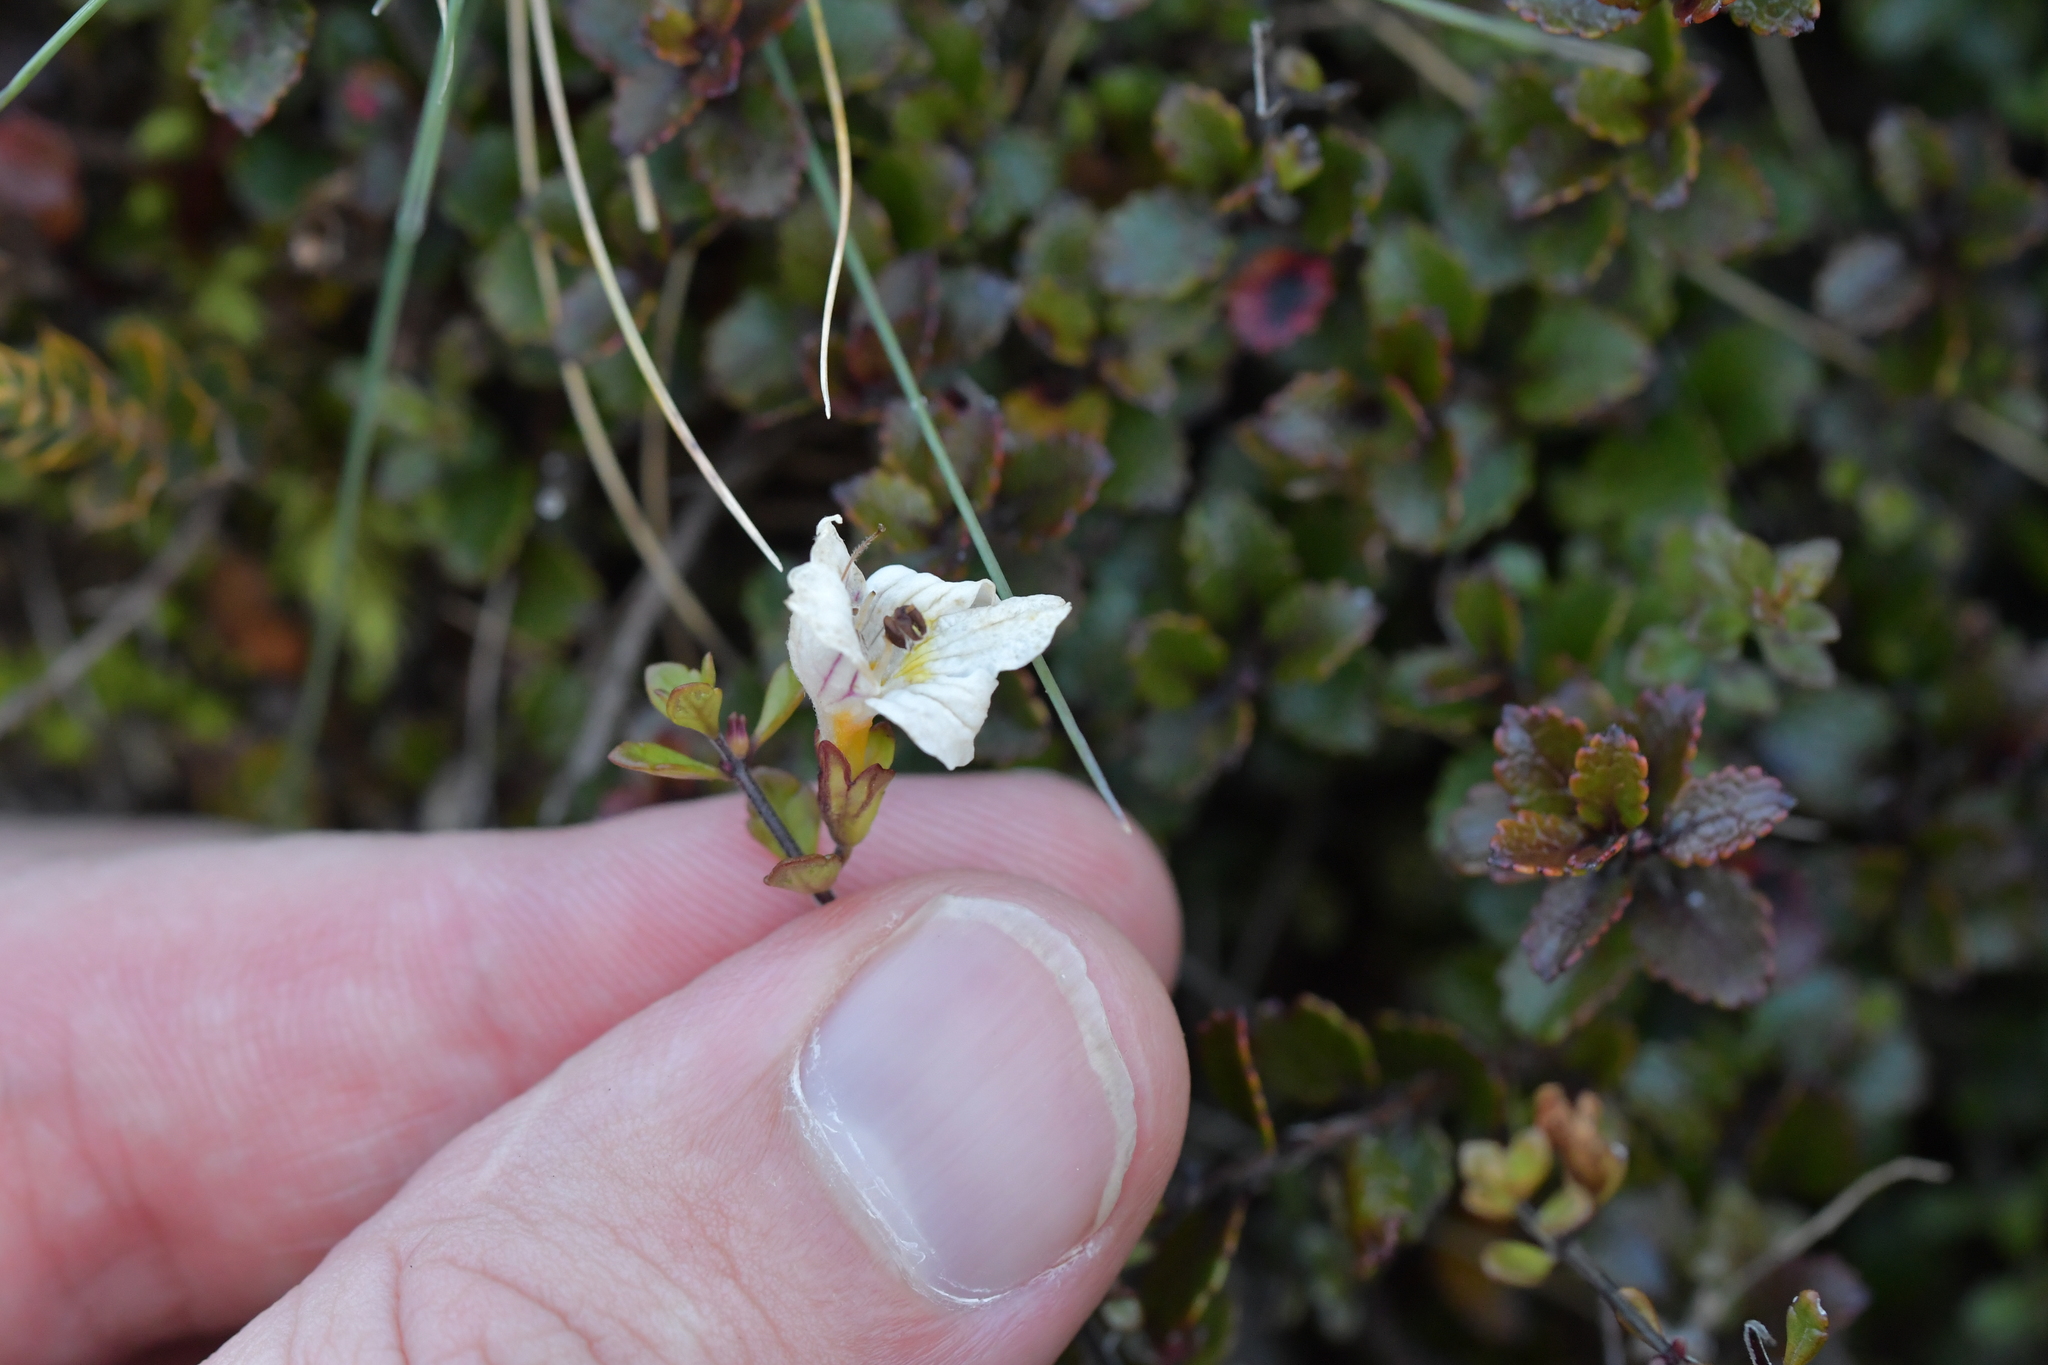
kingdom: Plantae
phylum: Tracheophyta
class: Magnoliopsida
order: Lamiales
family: Orobanchaceae
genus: Euphrasia
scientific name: Euphrasia cuneata
